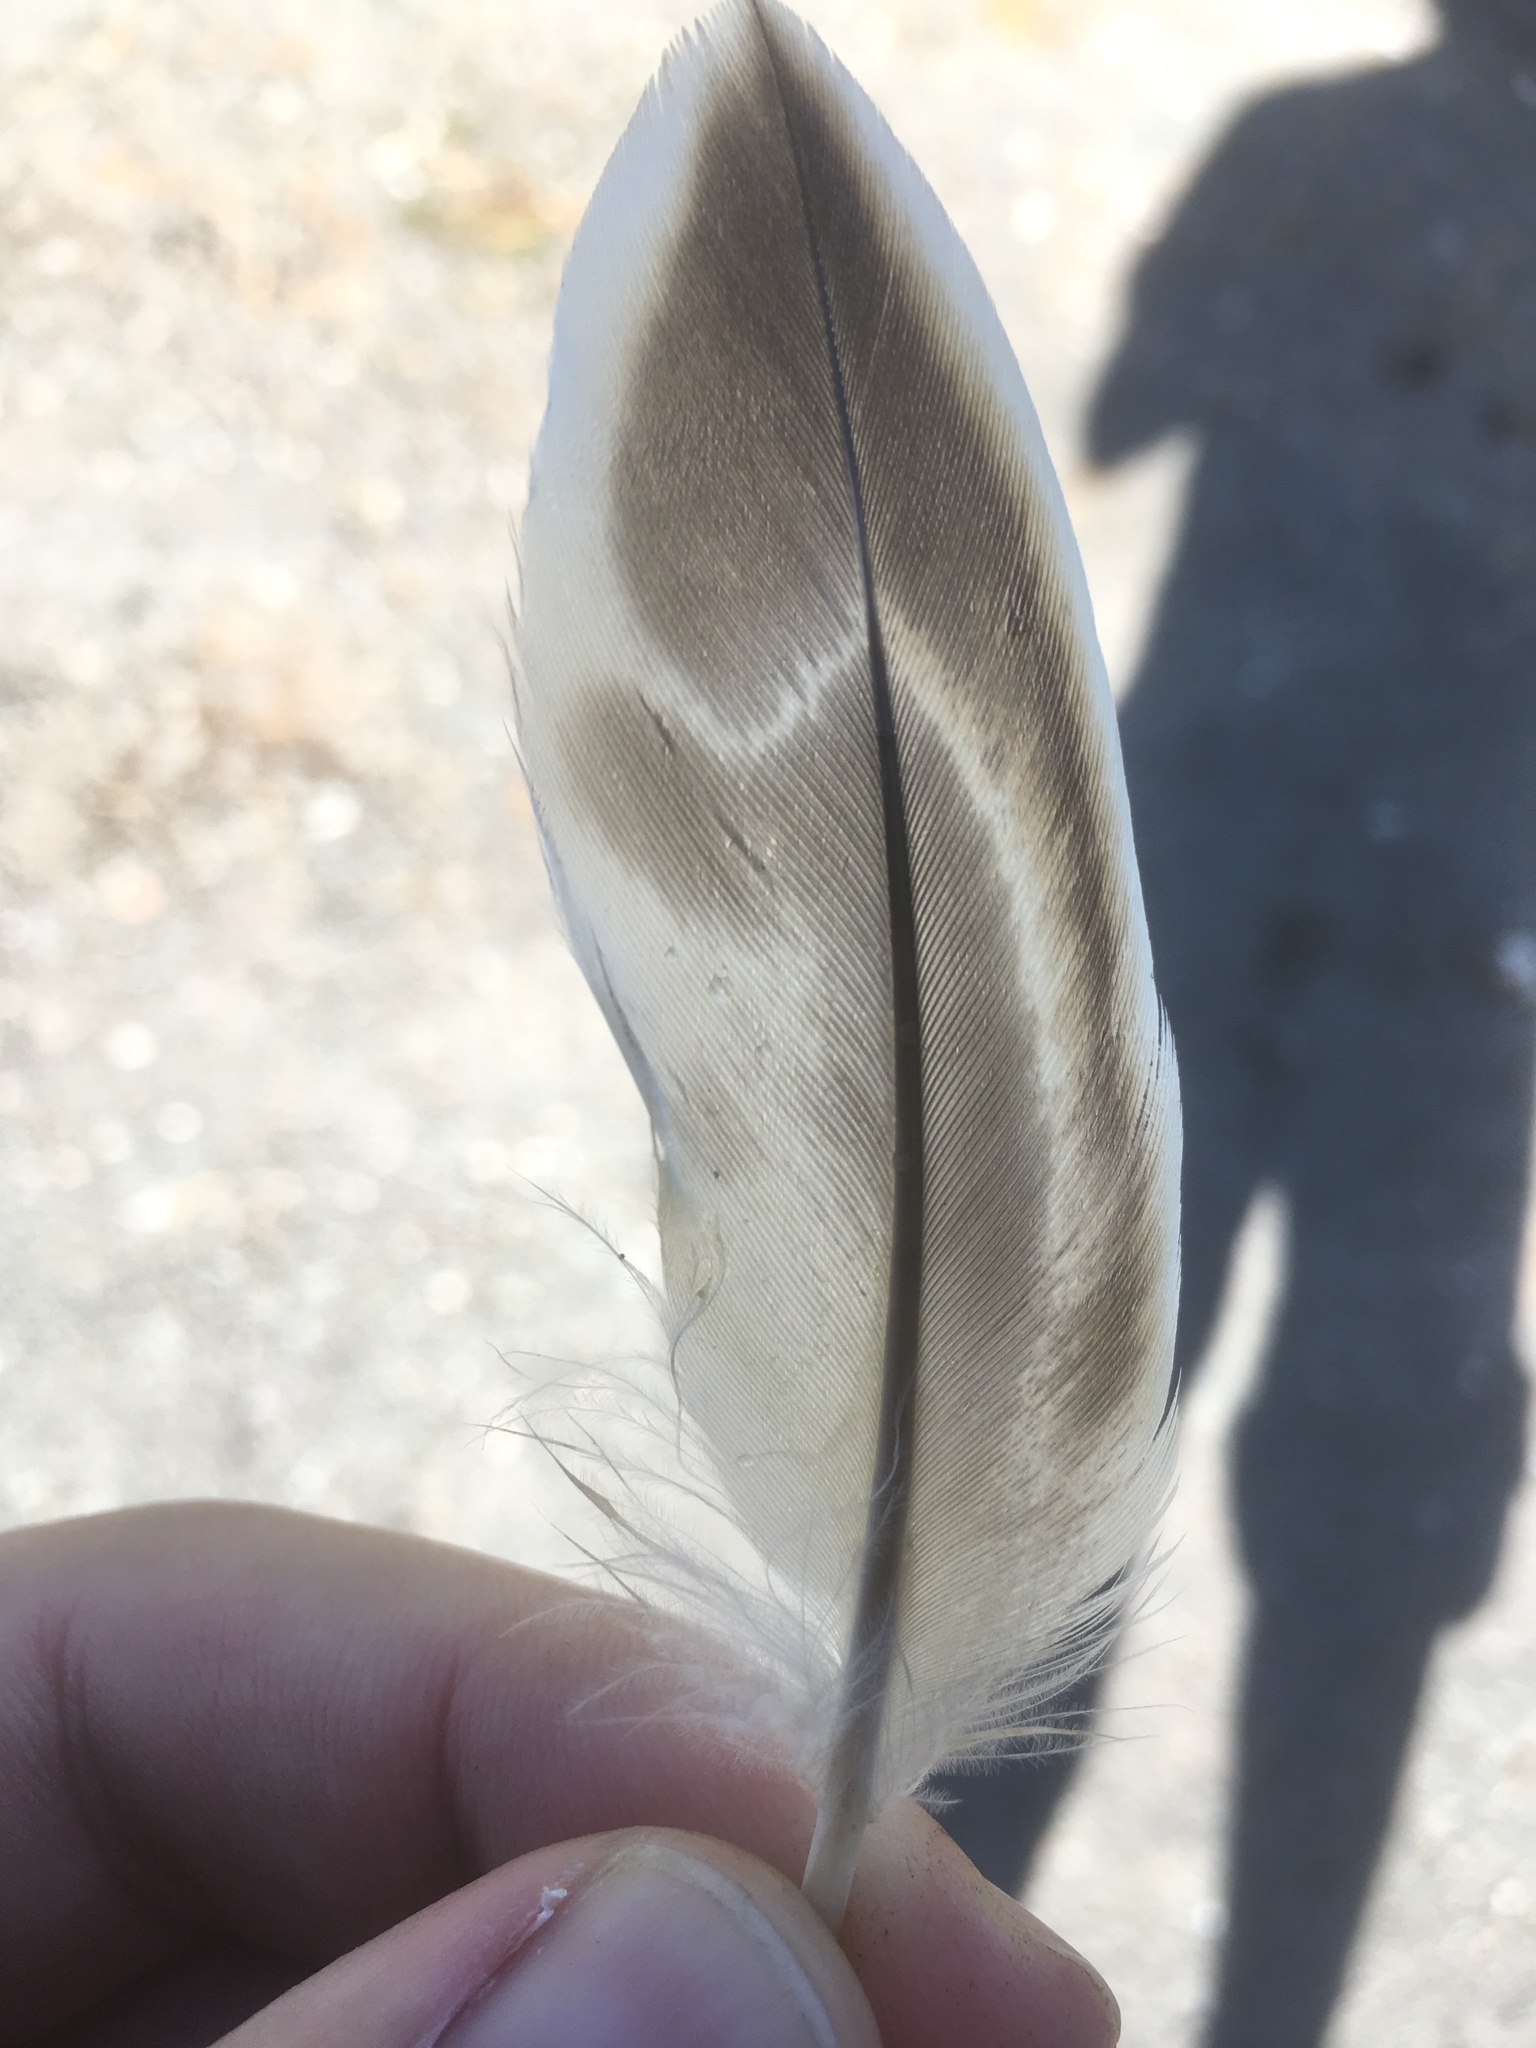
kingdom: Animalia
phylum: Chordata
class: Aves
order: Anseriformes
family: Anatidae
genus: Anas
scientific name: Anas platyrhynchos
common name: Mallard
